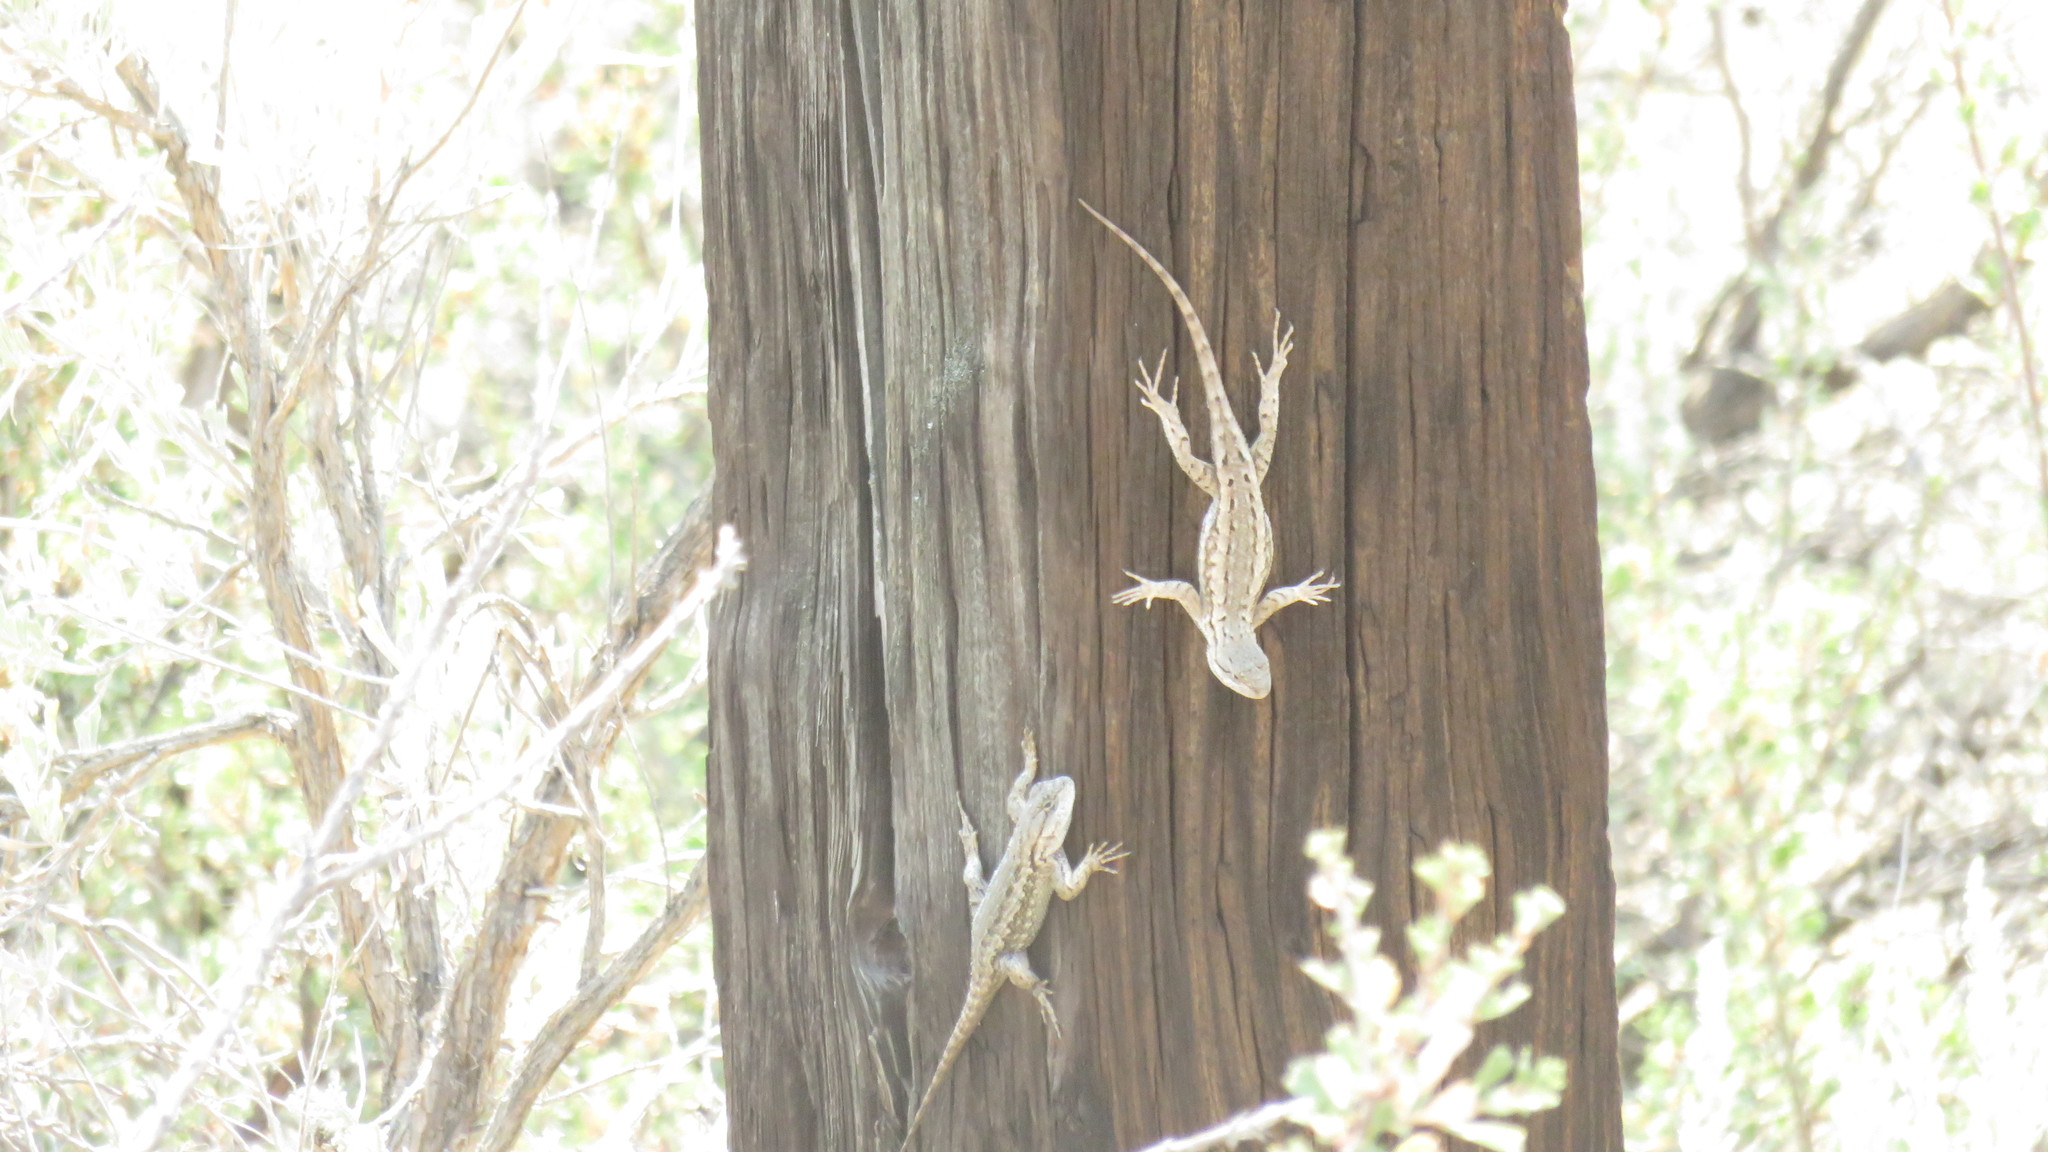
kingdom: Animalia
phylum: Chordata
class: Squamata
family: Phrynosomatidae
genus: Sceloporus
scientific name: Sceloporus occidentalis
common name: Western fence lizard
